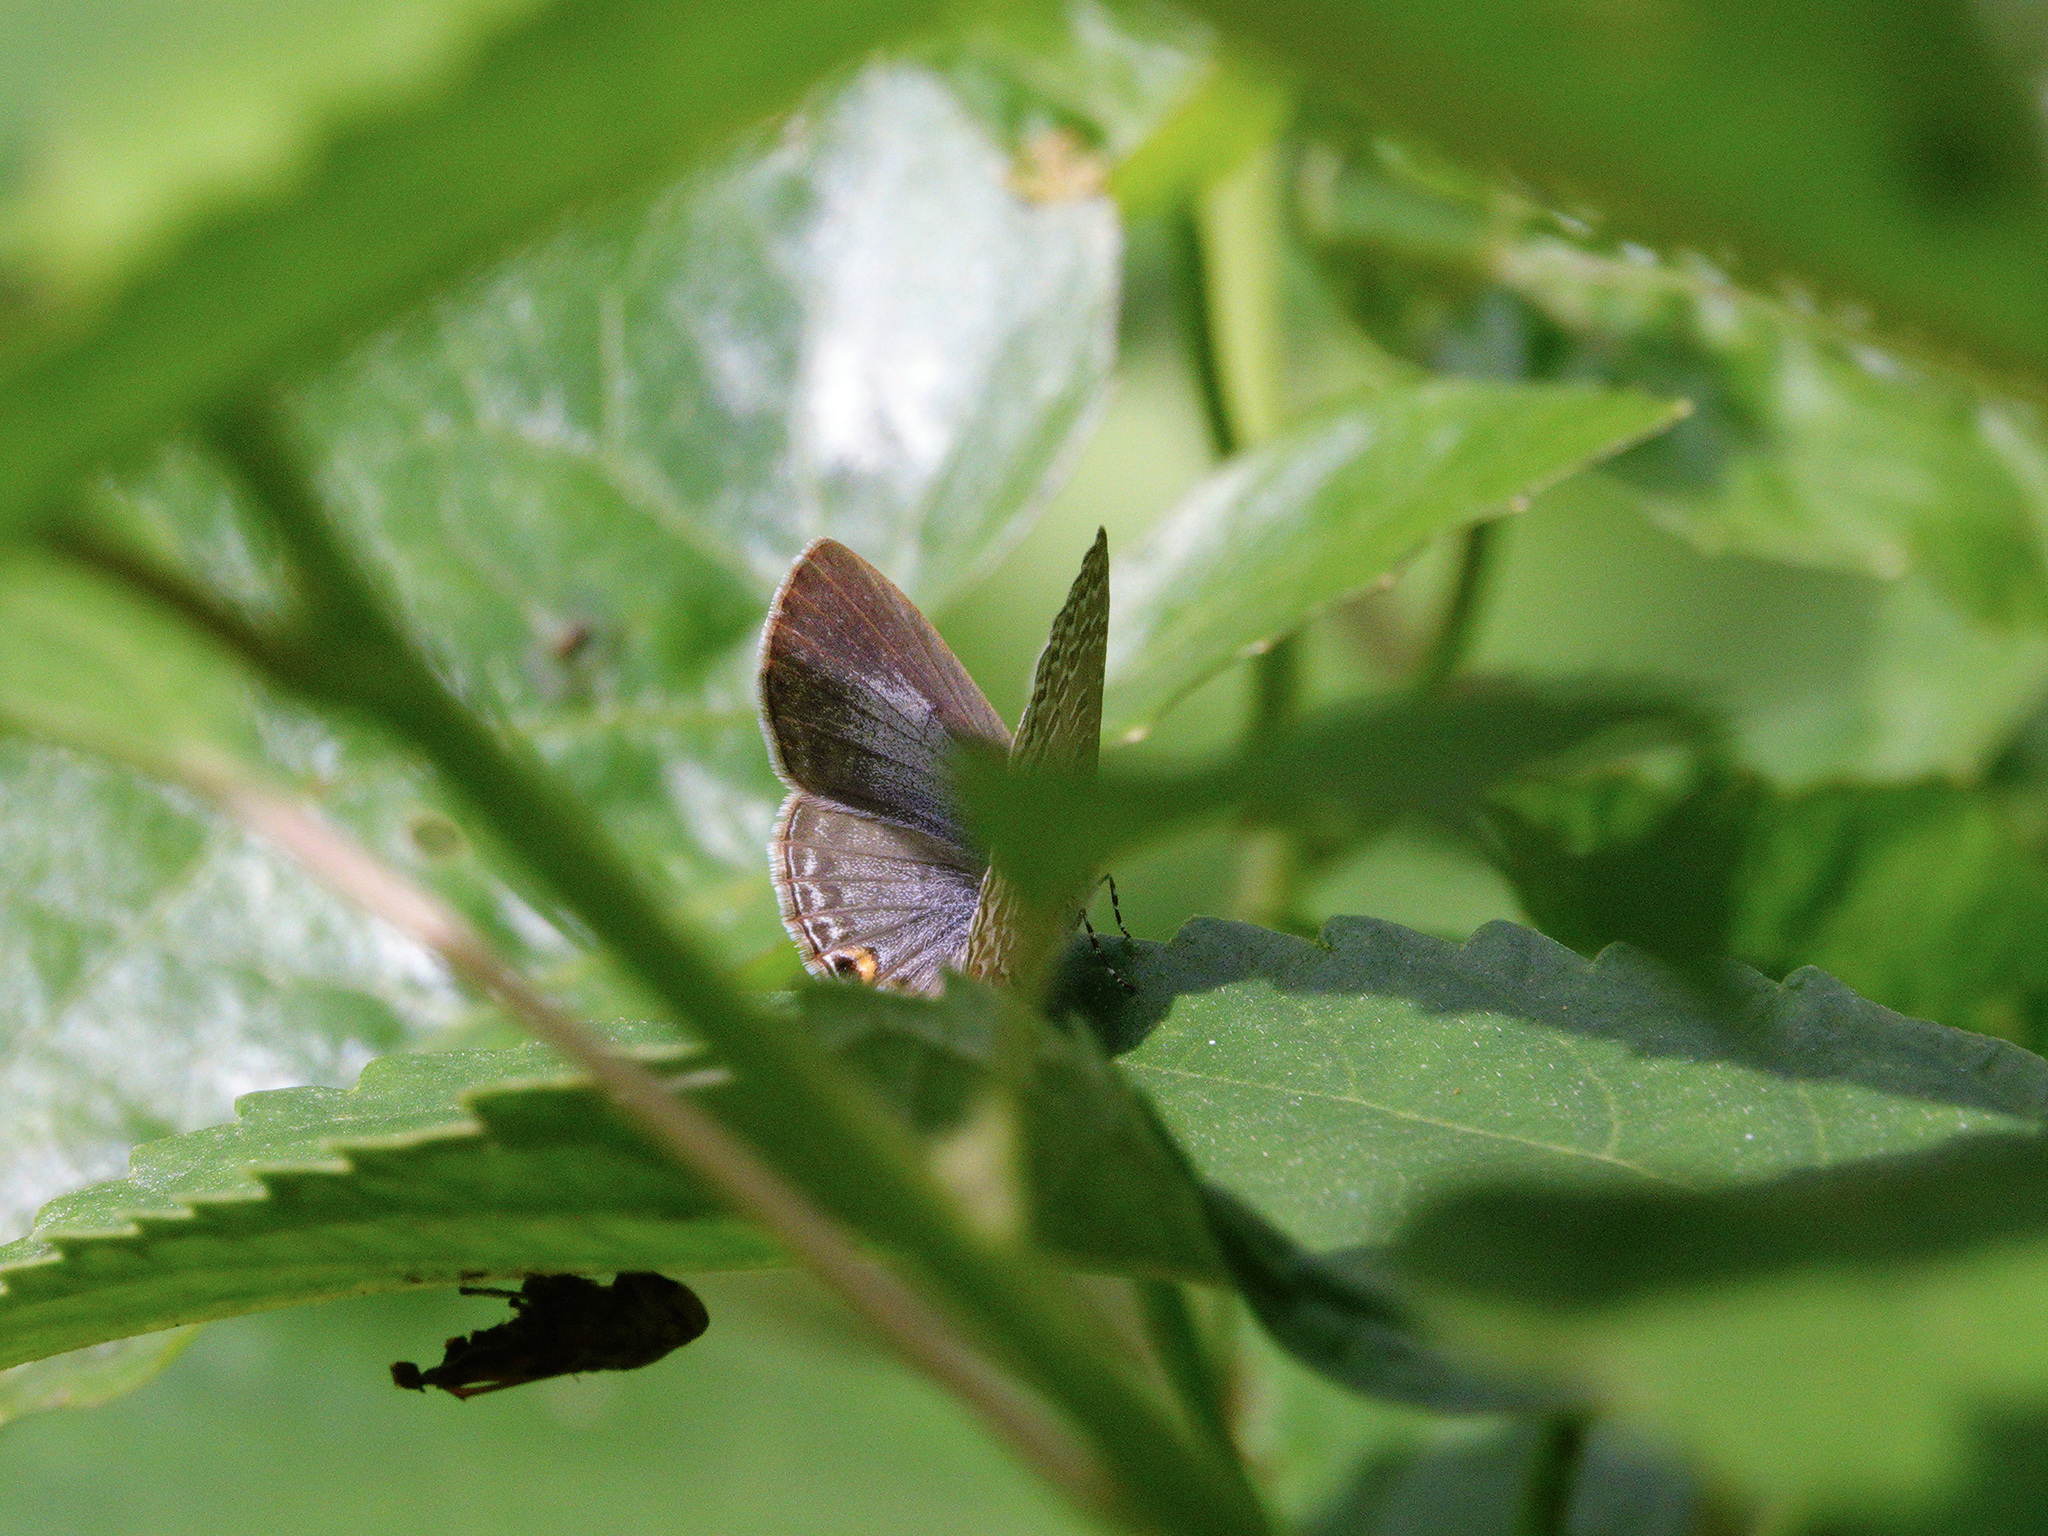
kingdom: Animalia
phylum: Arthropoda
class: Insecta
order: Lepidoptera
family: Lycaenidae
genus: Catopyrops
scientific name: Catopyrops ancyra
